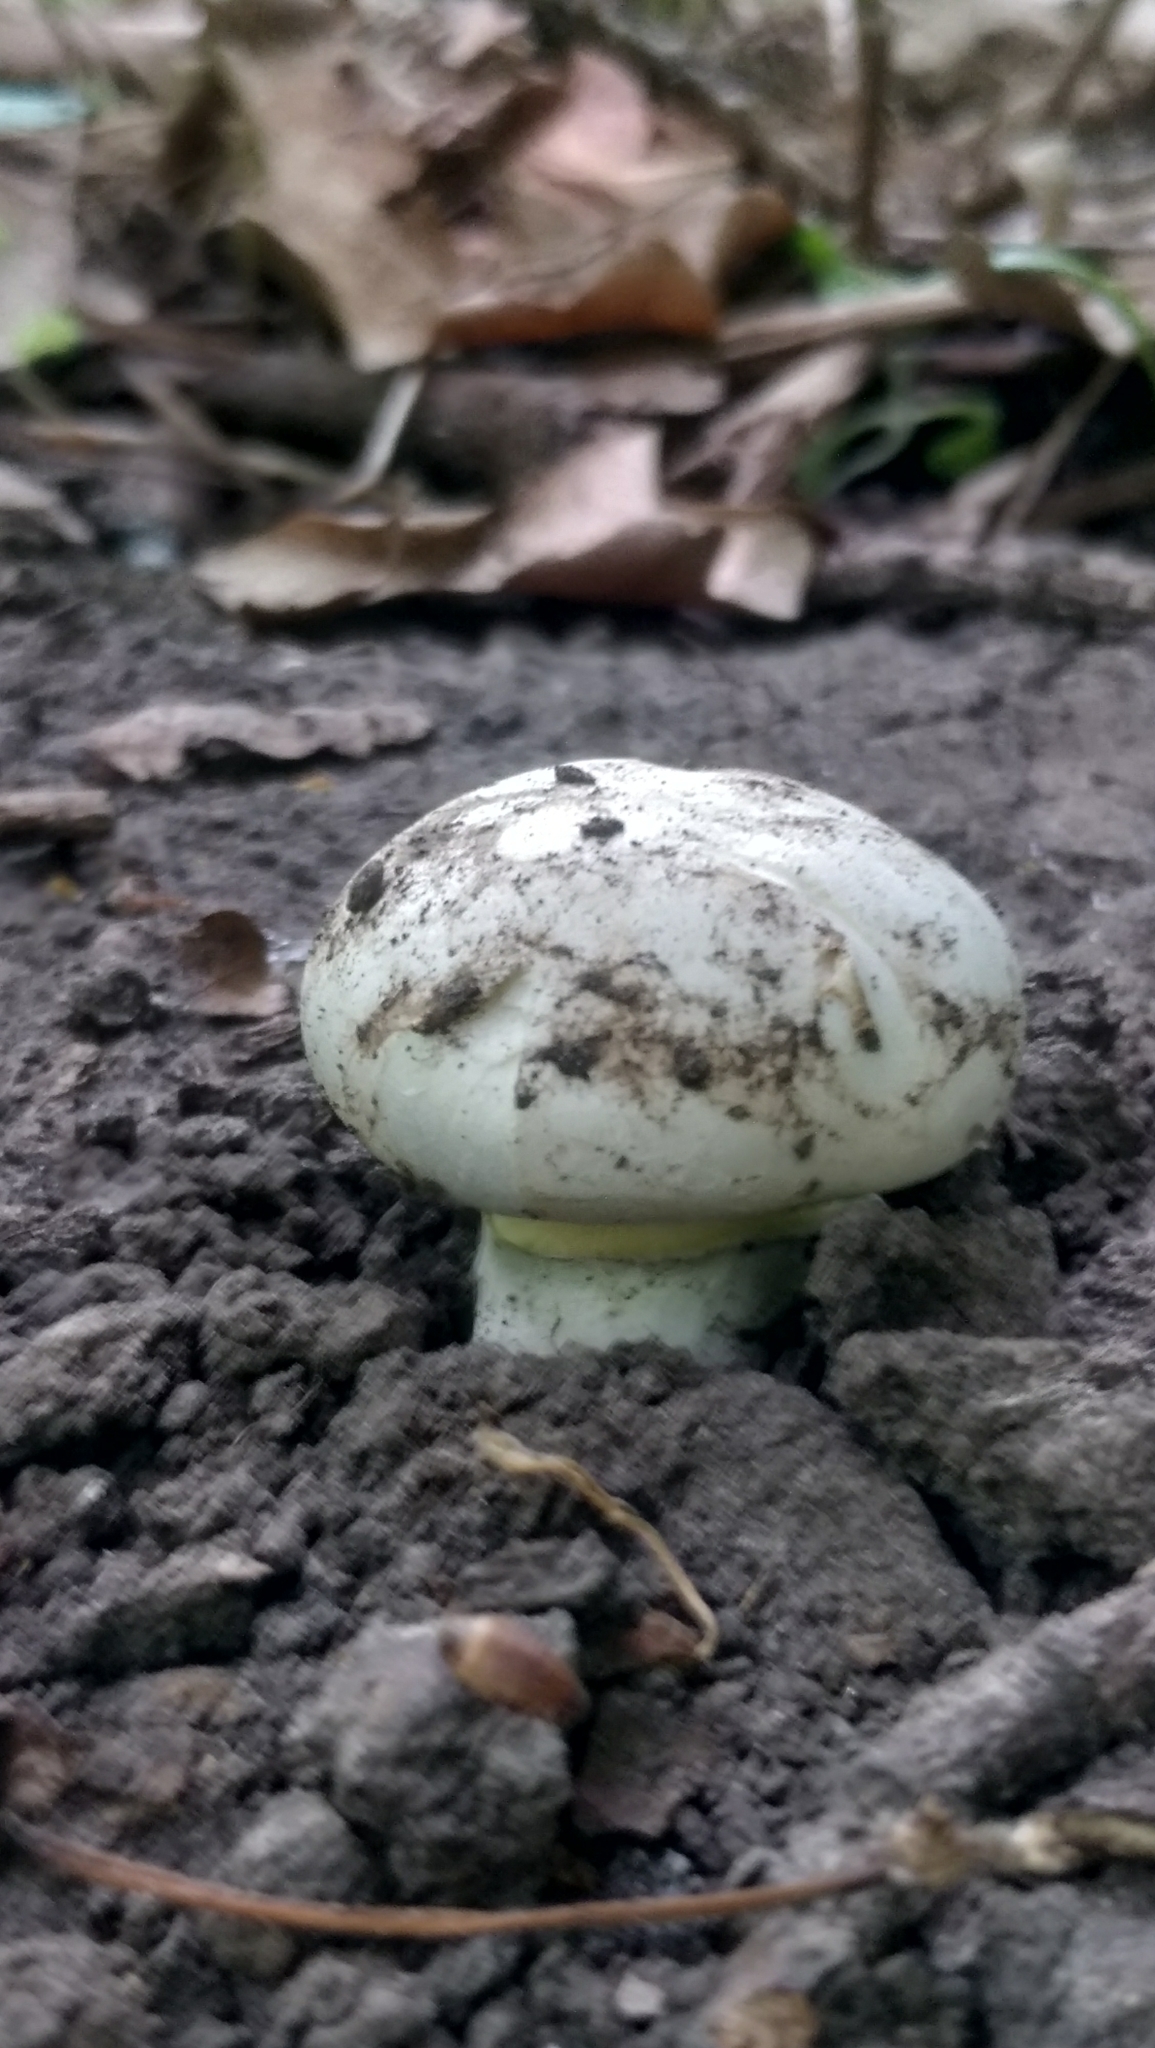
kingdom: Fungi
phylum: Basidiomycota
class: Agaricomycetes
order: Agaricales
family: Agaricaceae
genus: Agaricus
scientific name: Agaricus bitorquis
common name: Pavement mushroom
